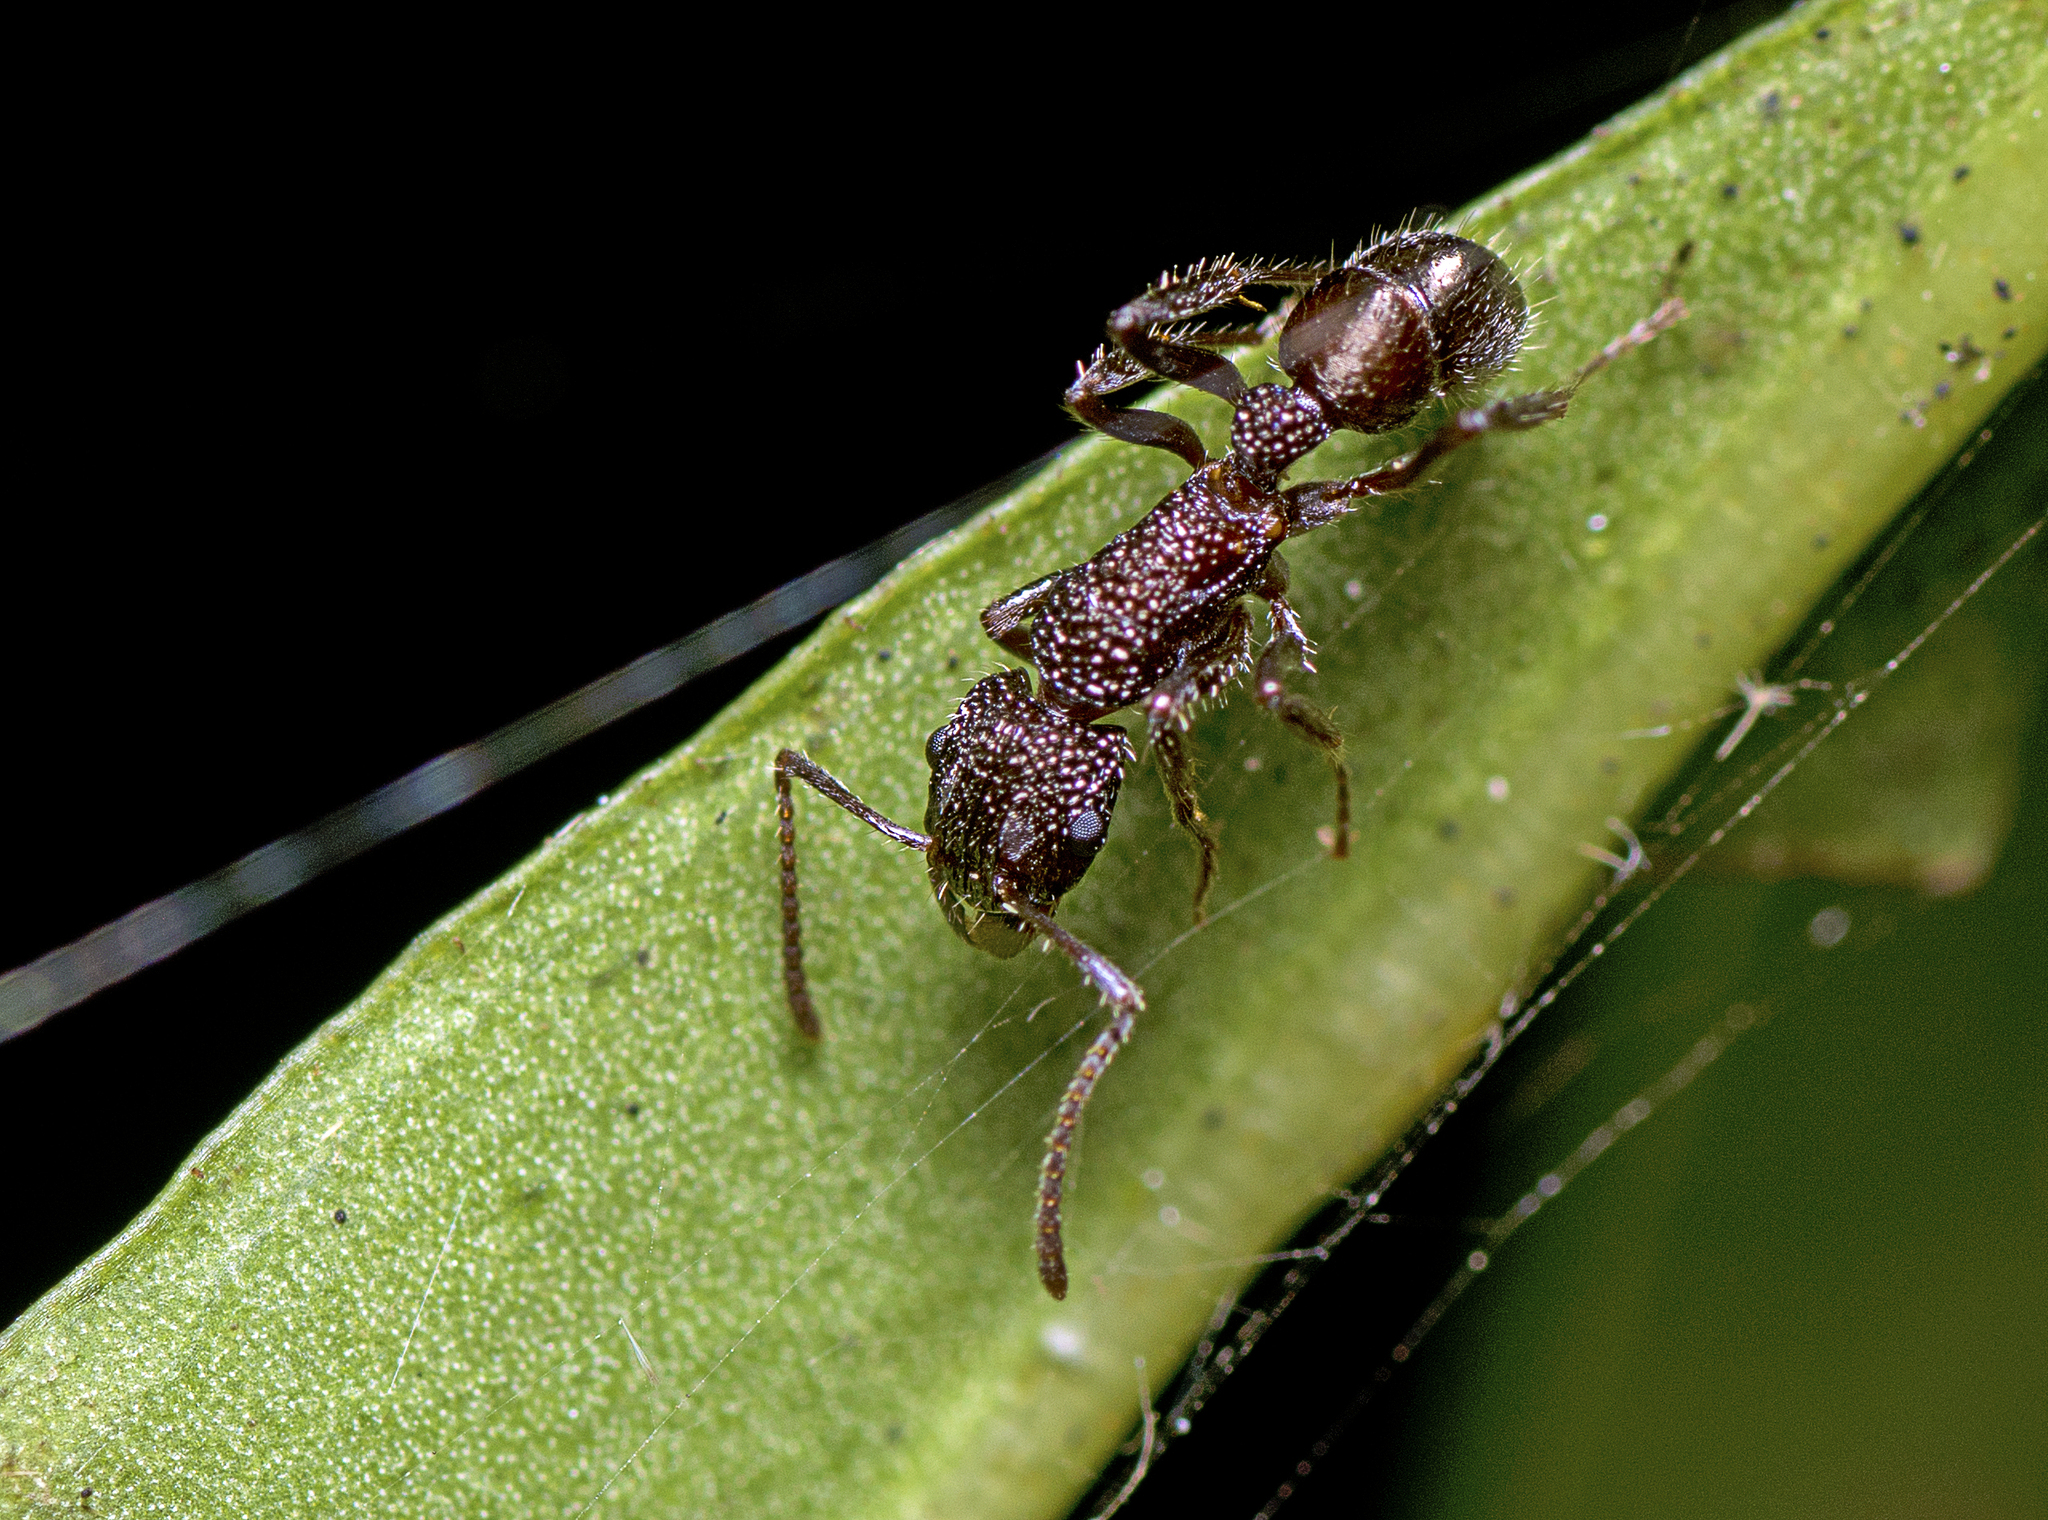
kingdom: Animalia
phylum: Arthropoda
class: Insecta
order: Hymenoptera
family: Formicidae
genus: Rhytidoponera
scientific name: Rhytidoponera anceps
